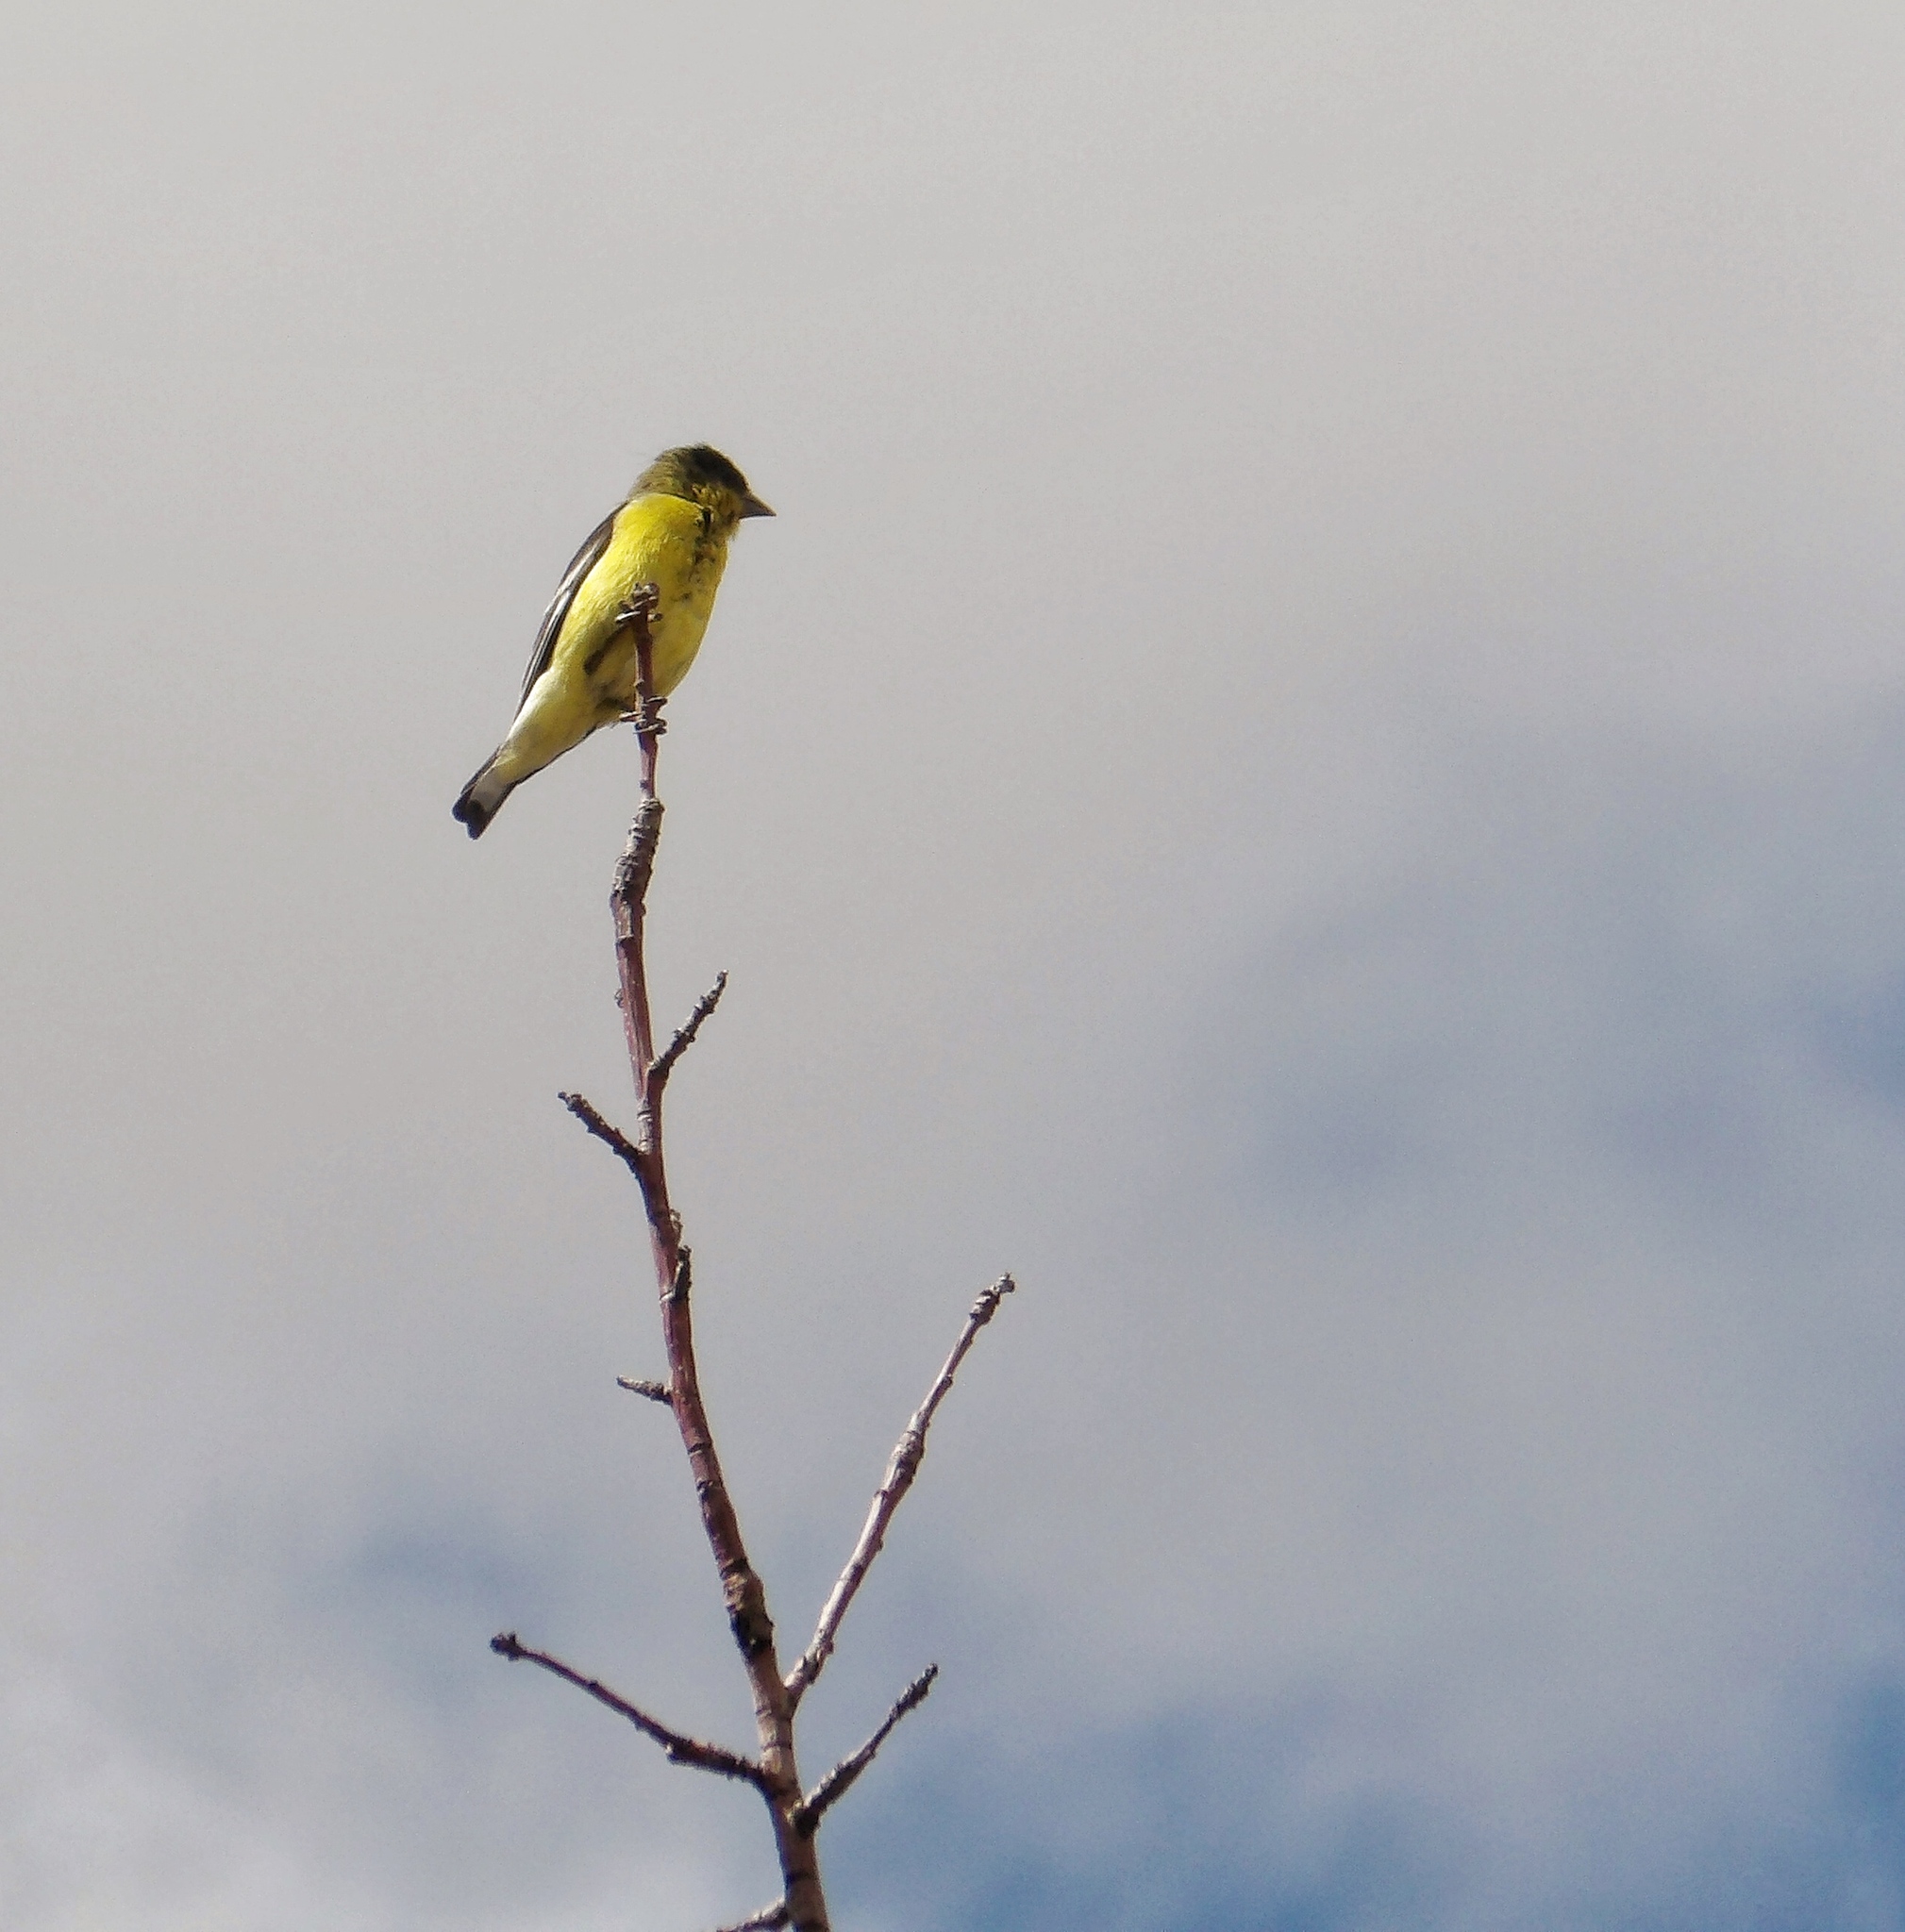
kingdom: Animalia
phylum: Chordata
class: Aves
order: Passeriformes
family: Fringillidae
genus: Spinus
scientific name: Spinus psaltria
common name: Lesser goldfinch
